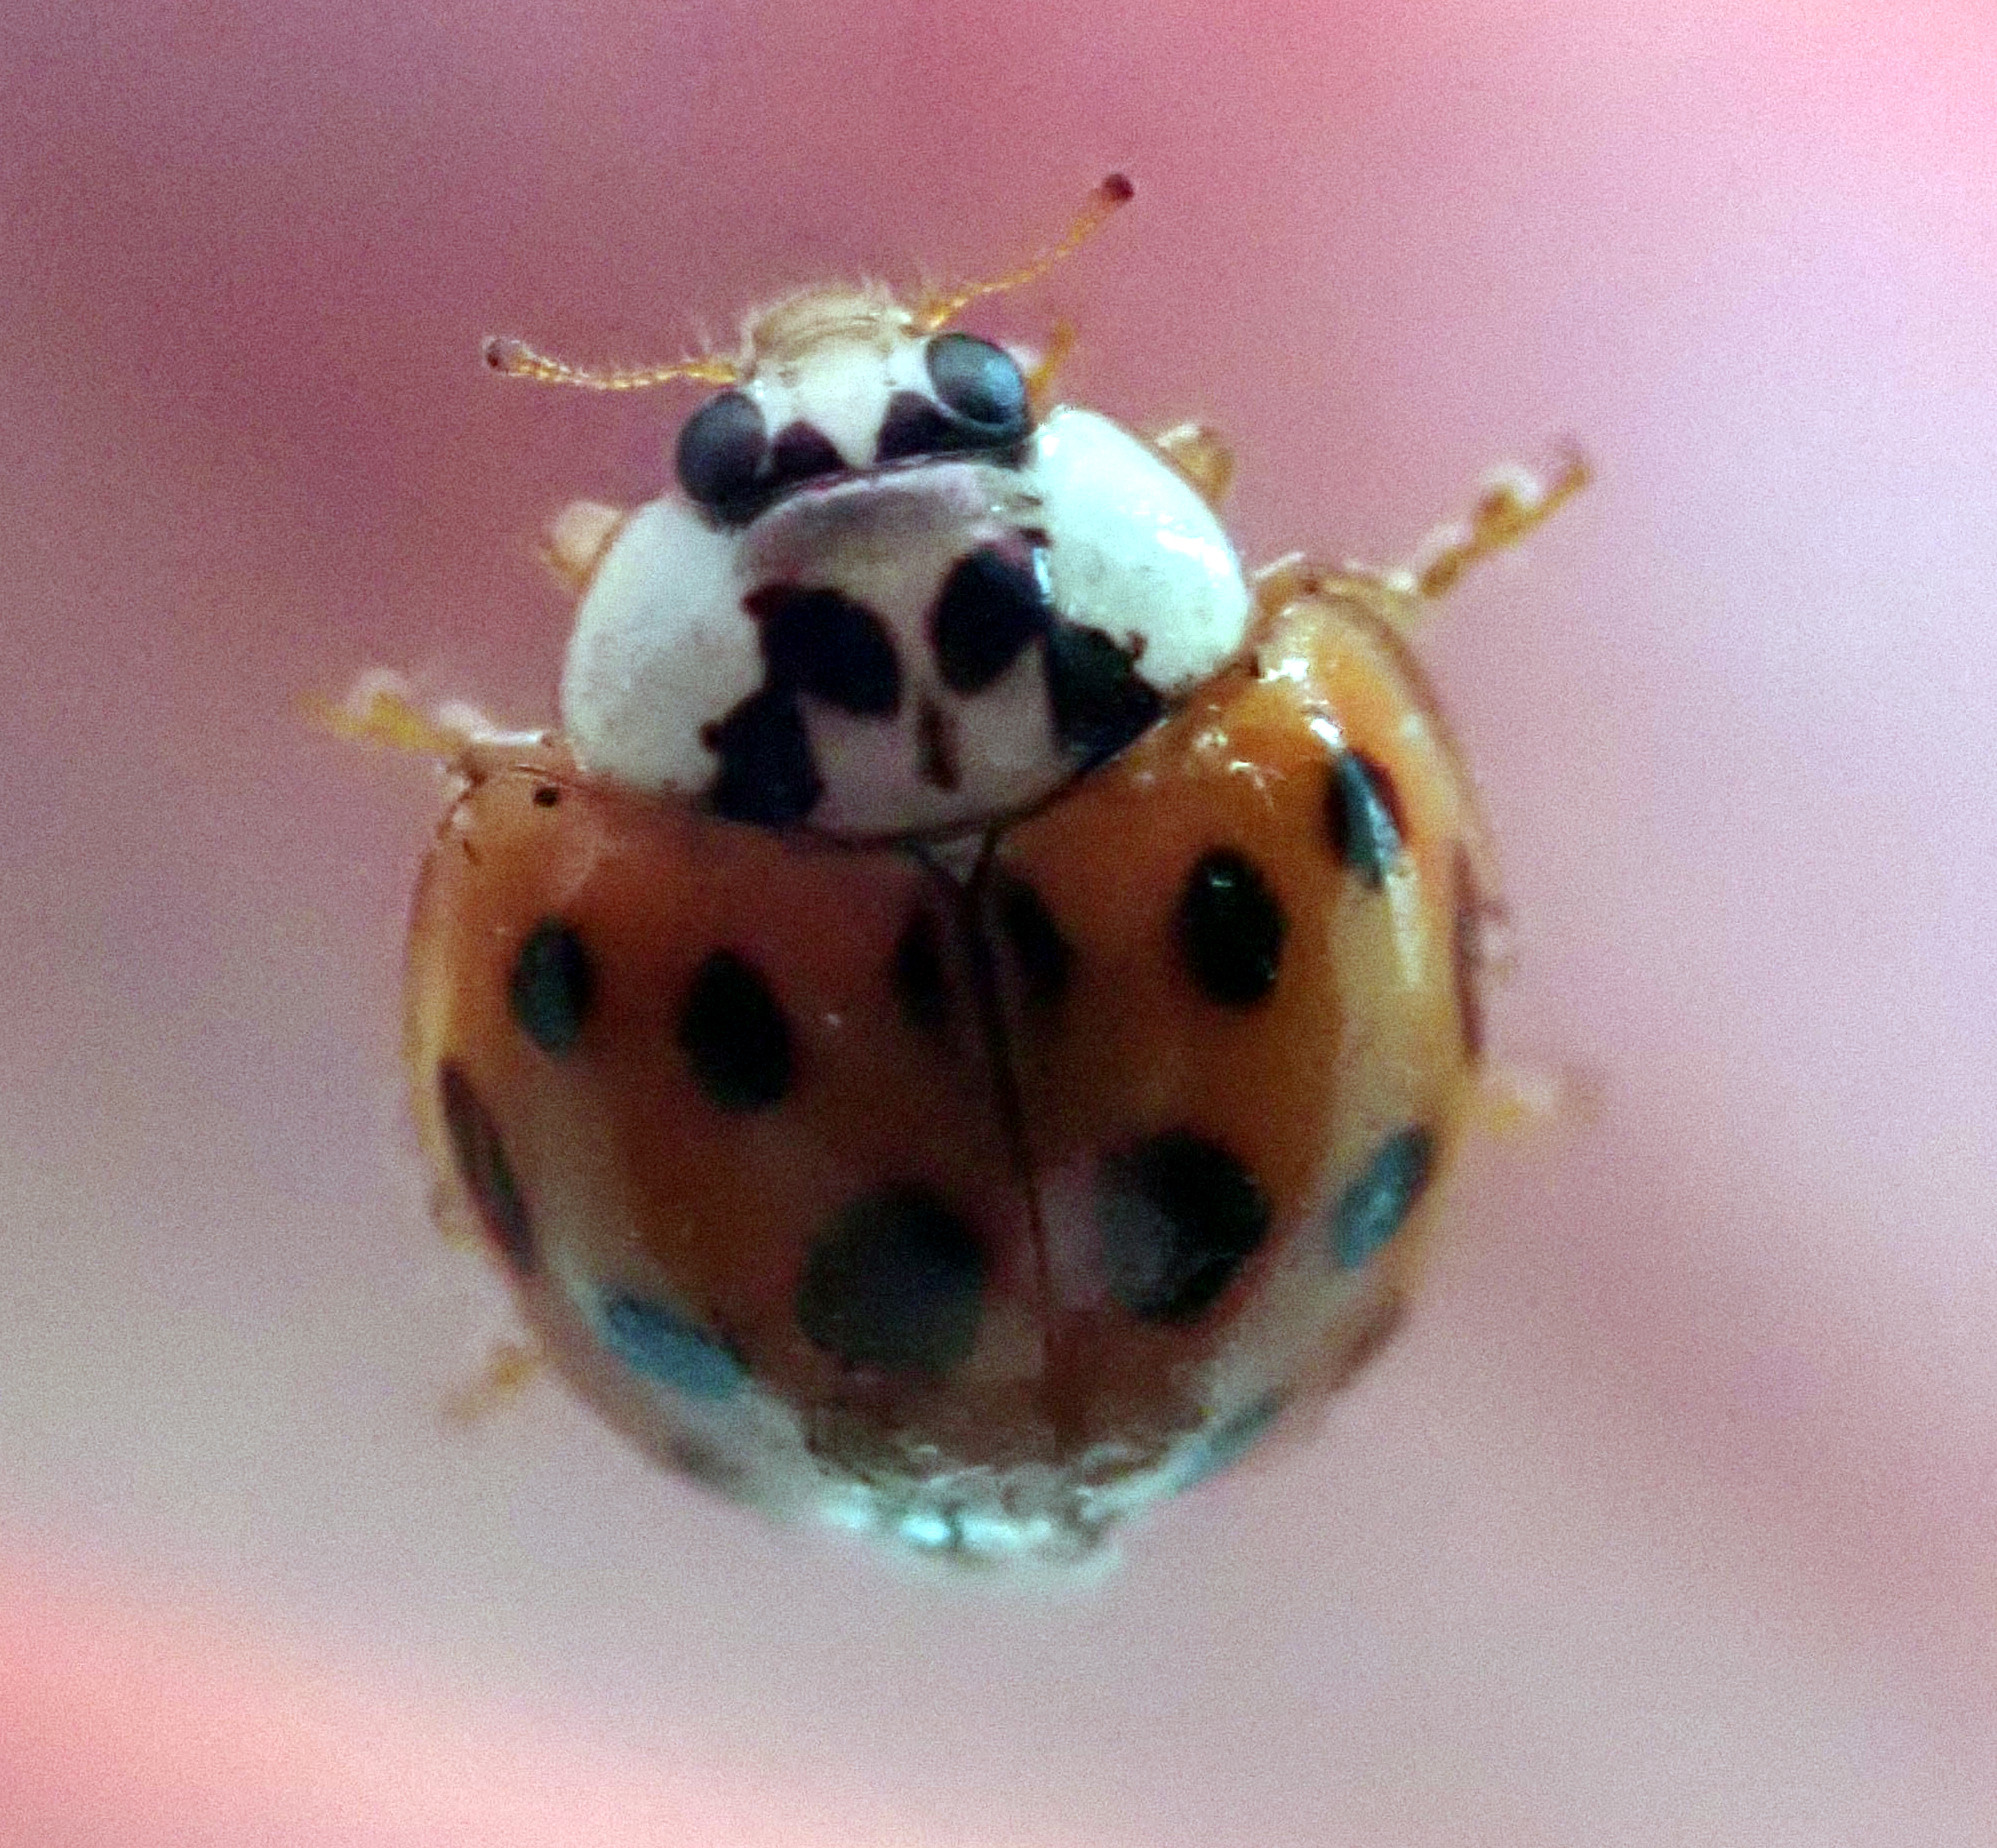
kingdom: Animalia
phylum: Arthropoda
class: Insecta
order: Coleoptera
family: Coccinellidae
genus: Harmonia
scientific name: Harmonia axyridis
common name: Harlequin ladybird
